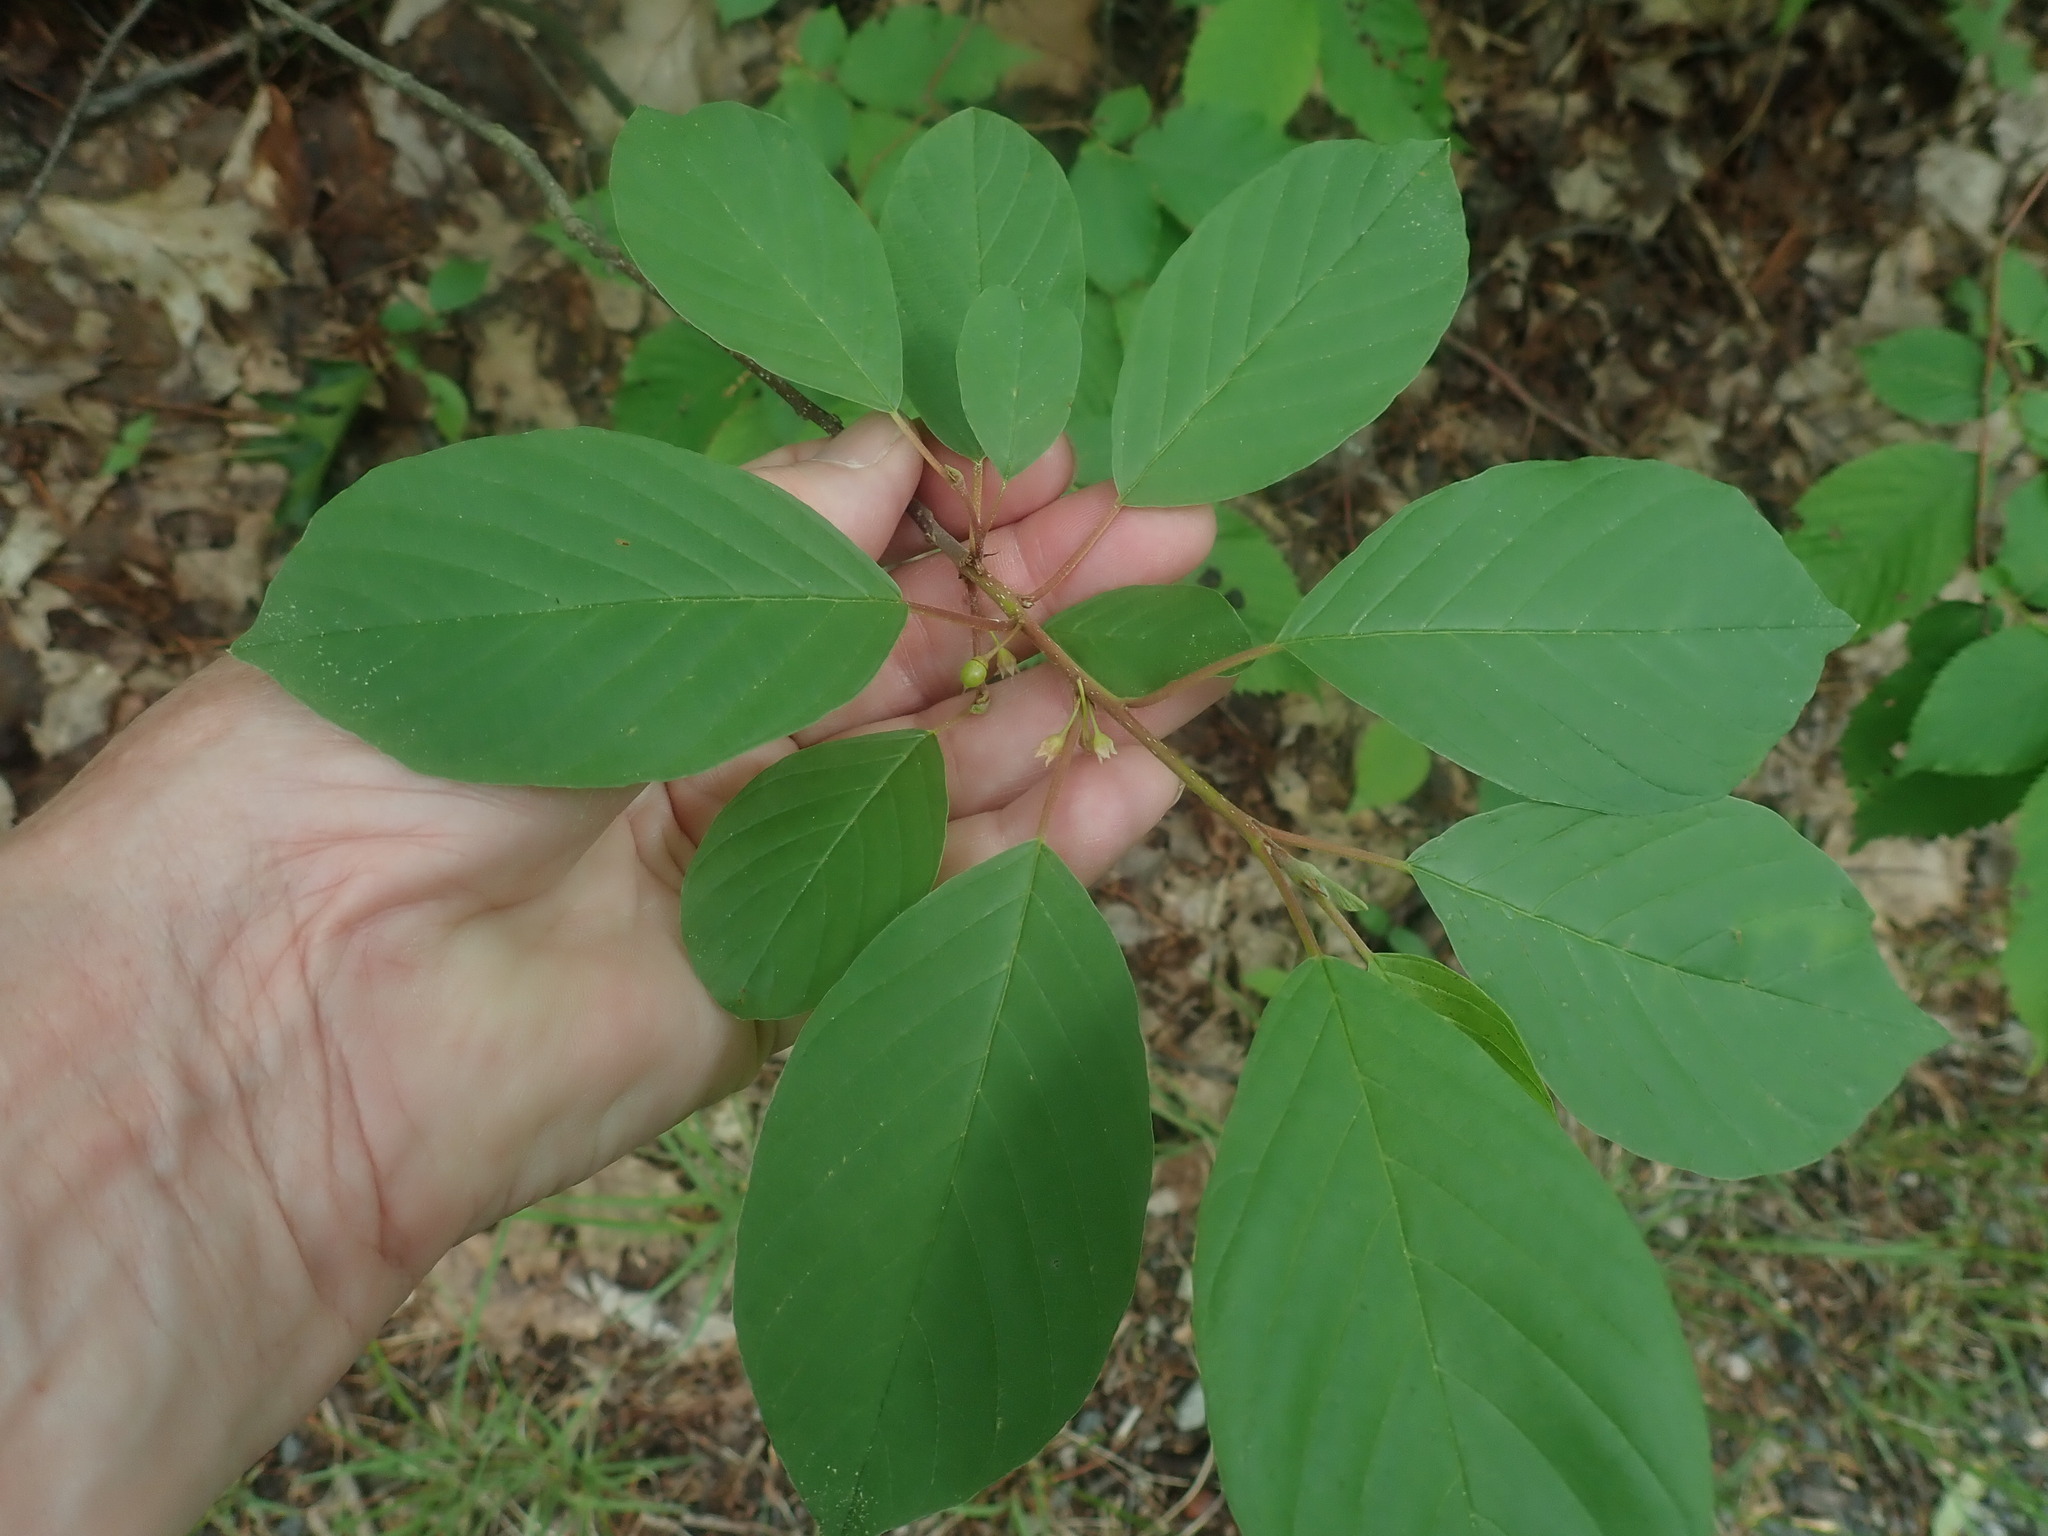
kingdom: Plantae
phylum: Tracheophyta
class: Magnoliopsida
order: Rosales
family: Rhamnaceae
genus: Frangula
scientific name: Frangula alnus
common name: Alder buckthorn
